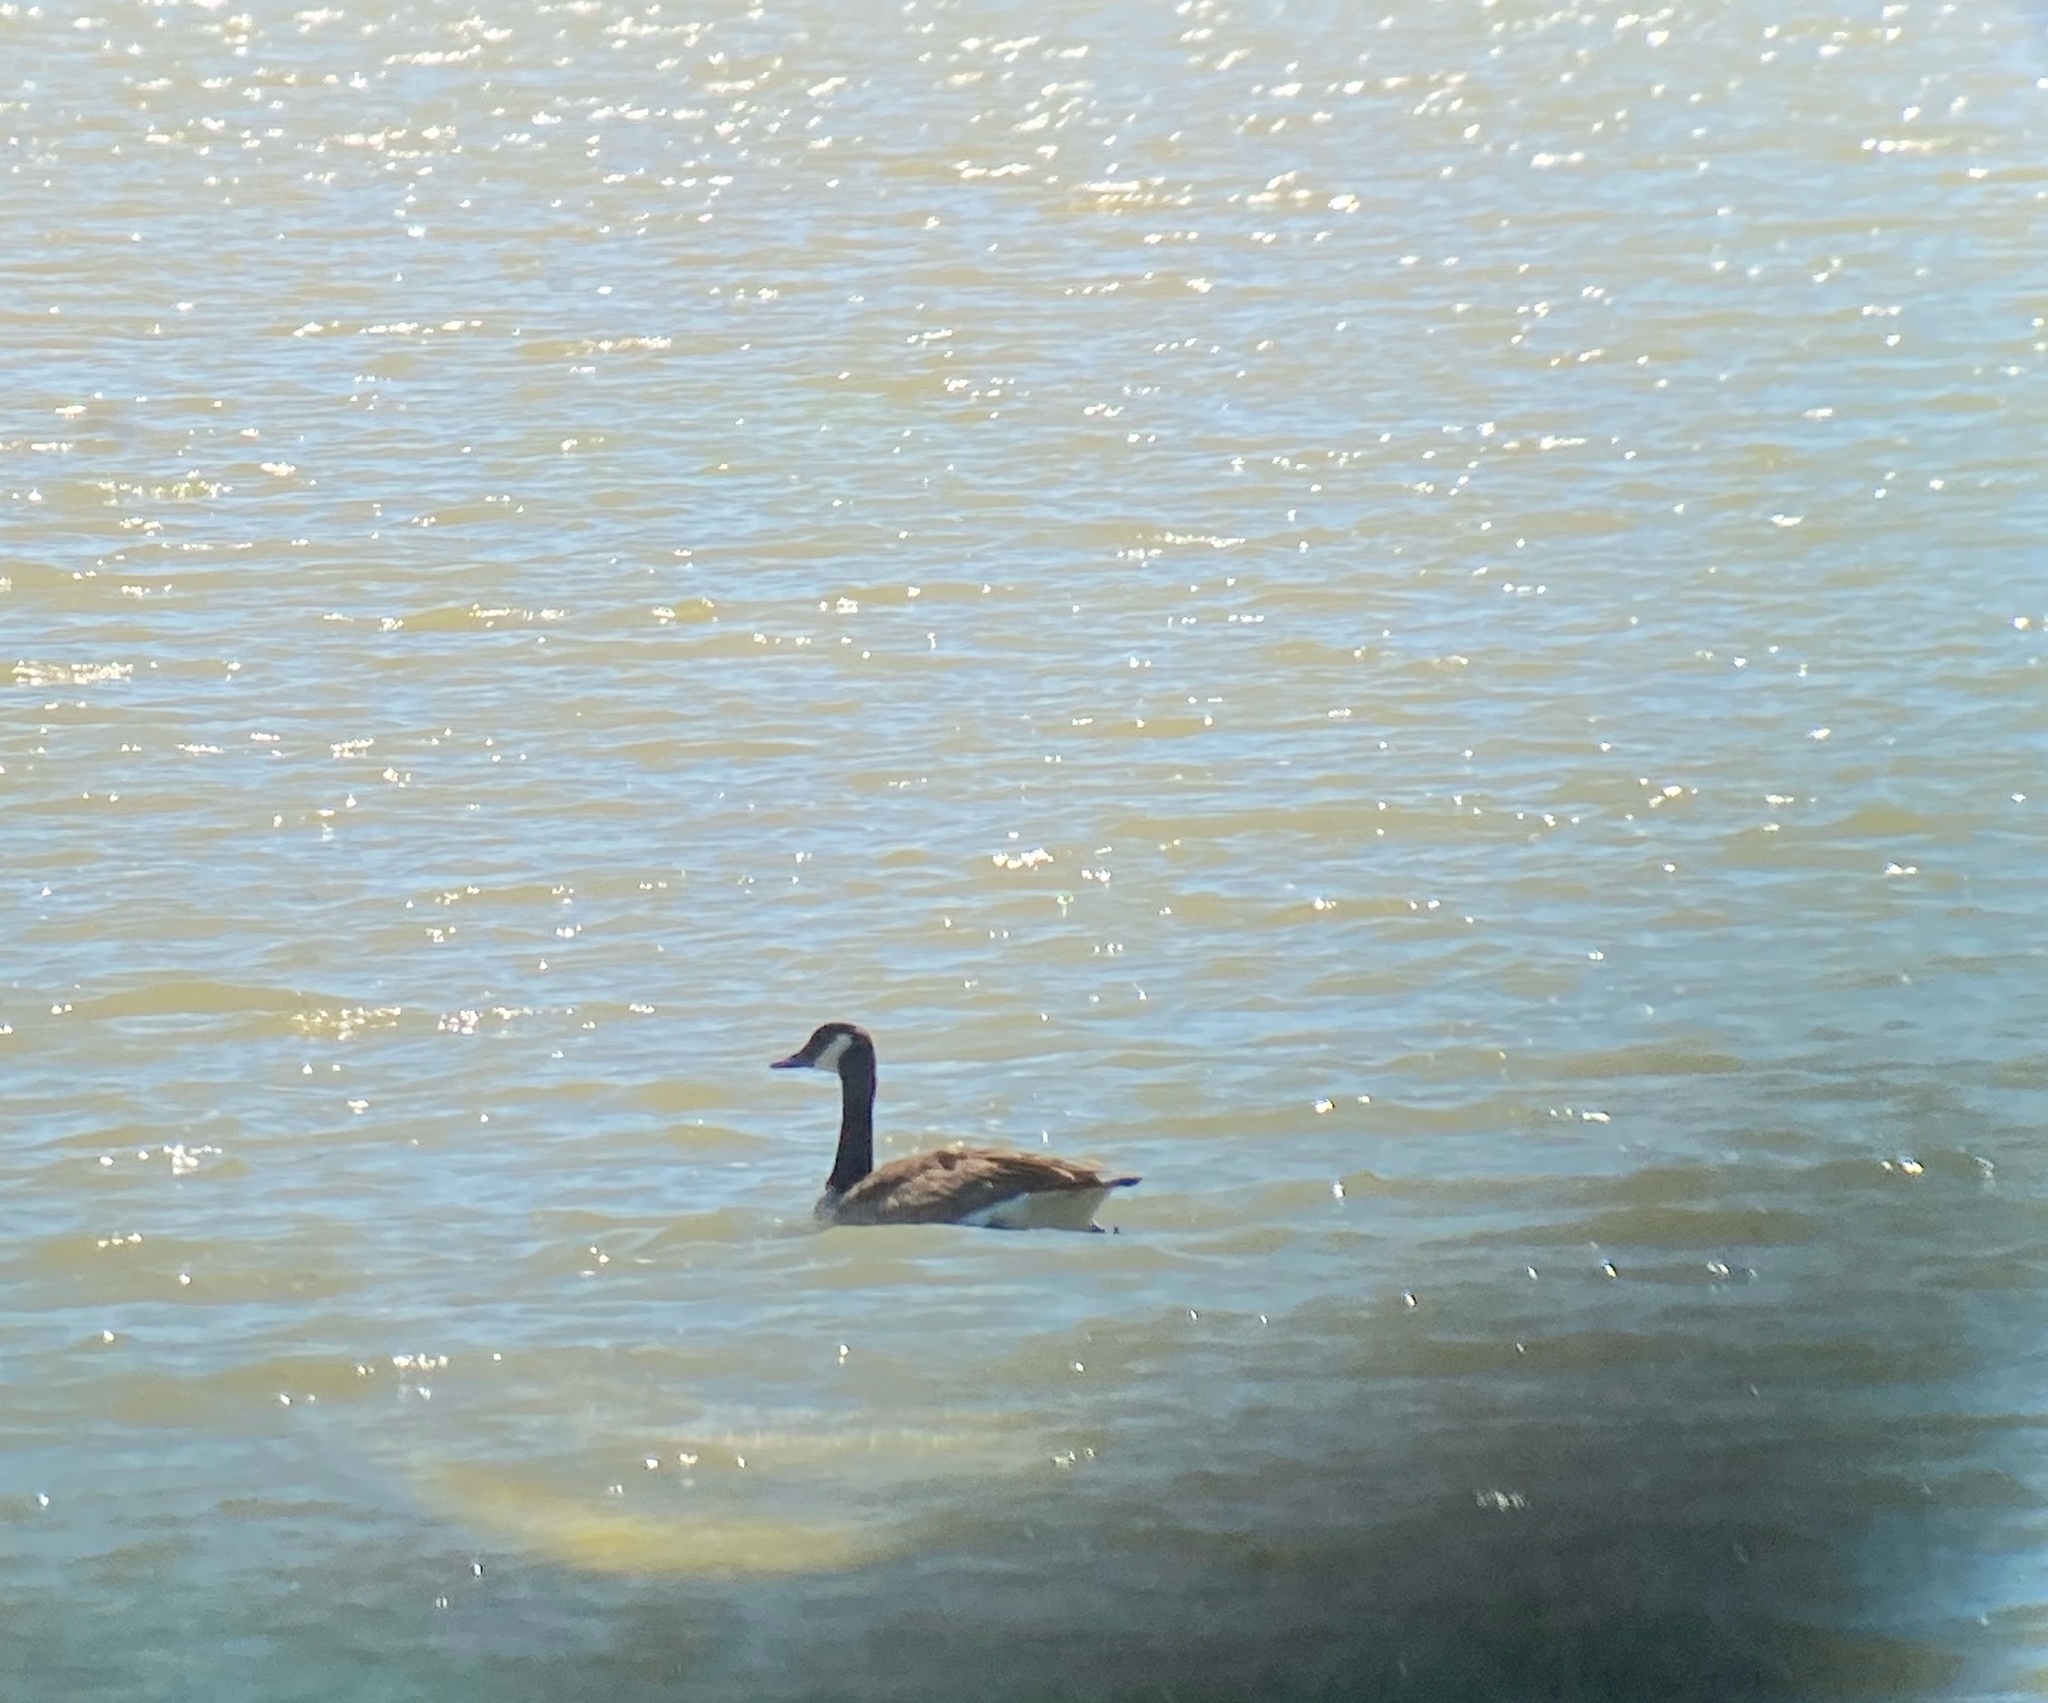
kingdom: Animalia
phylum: Chordata
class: Aves
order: Anseriformes
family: Anatidae
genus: Branta
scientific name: Branta canadensis
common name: Canada goose
